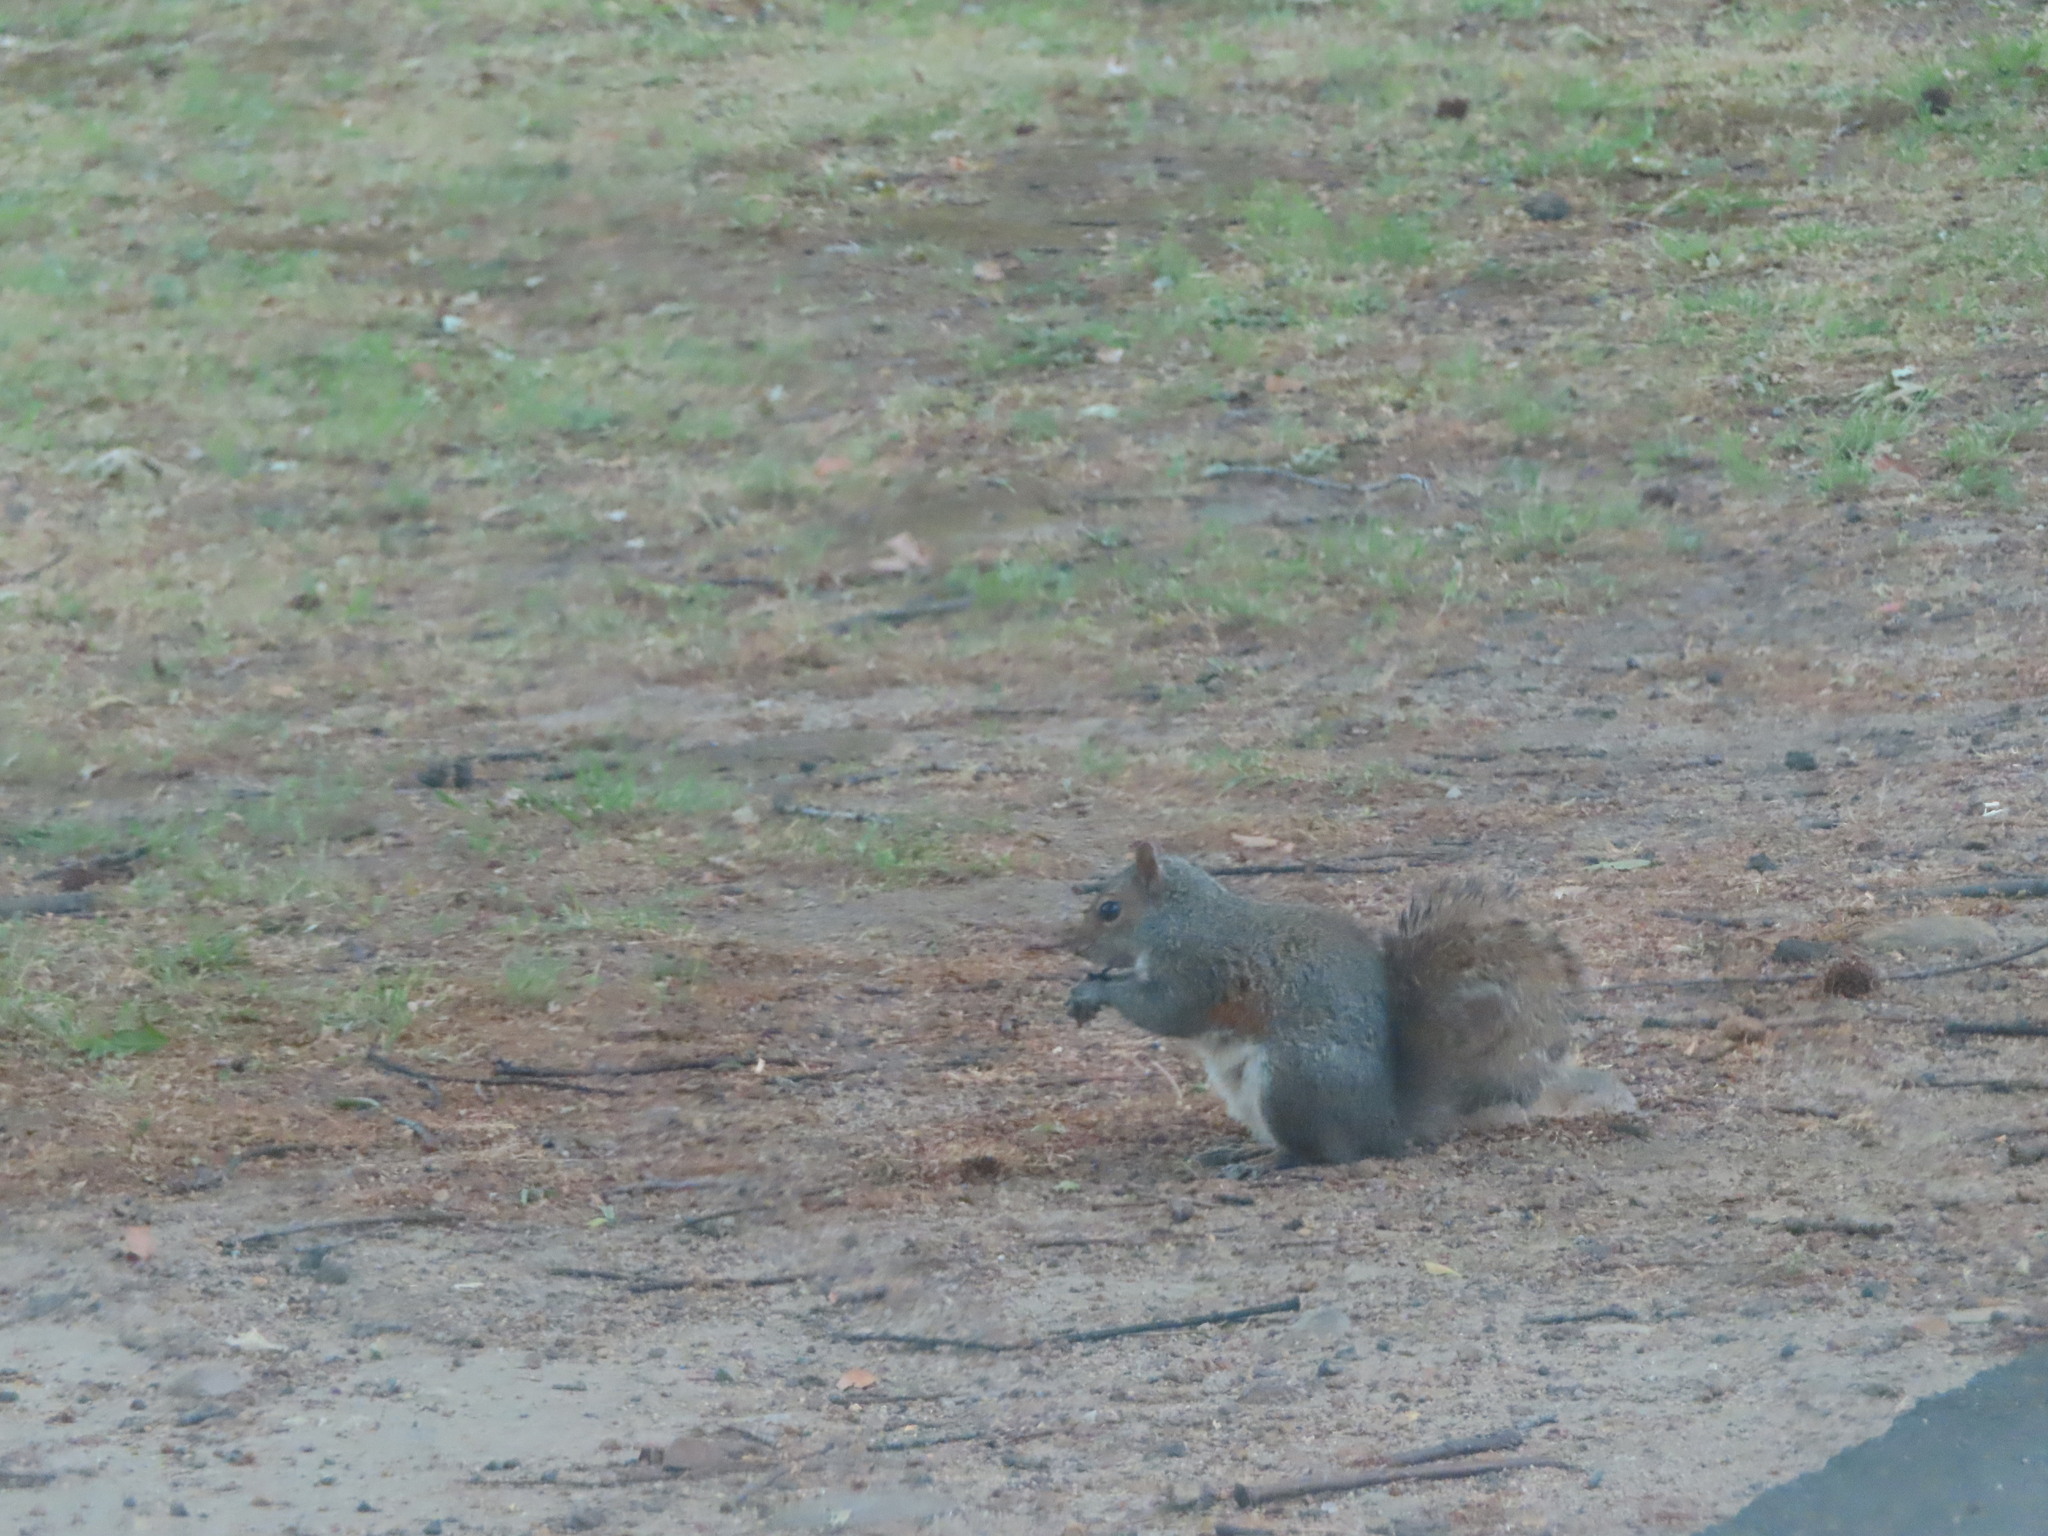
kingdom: Animalia
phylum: Chordata
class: Mammalia
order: Rodentia
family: Sciuridae
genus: Sciurus
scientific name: Sciurus carolinensis
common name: Eastern gray squirrel
